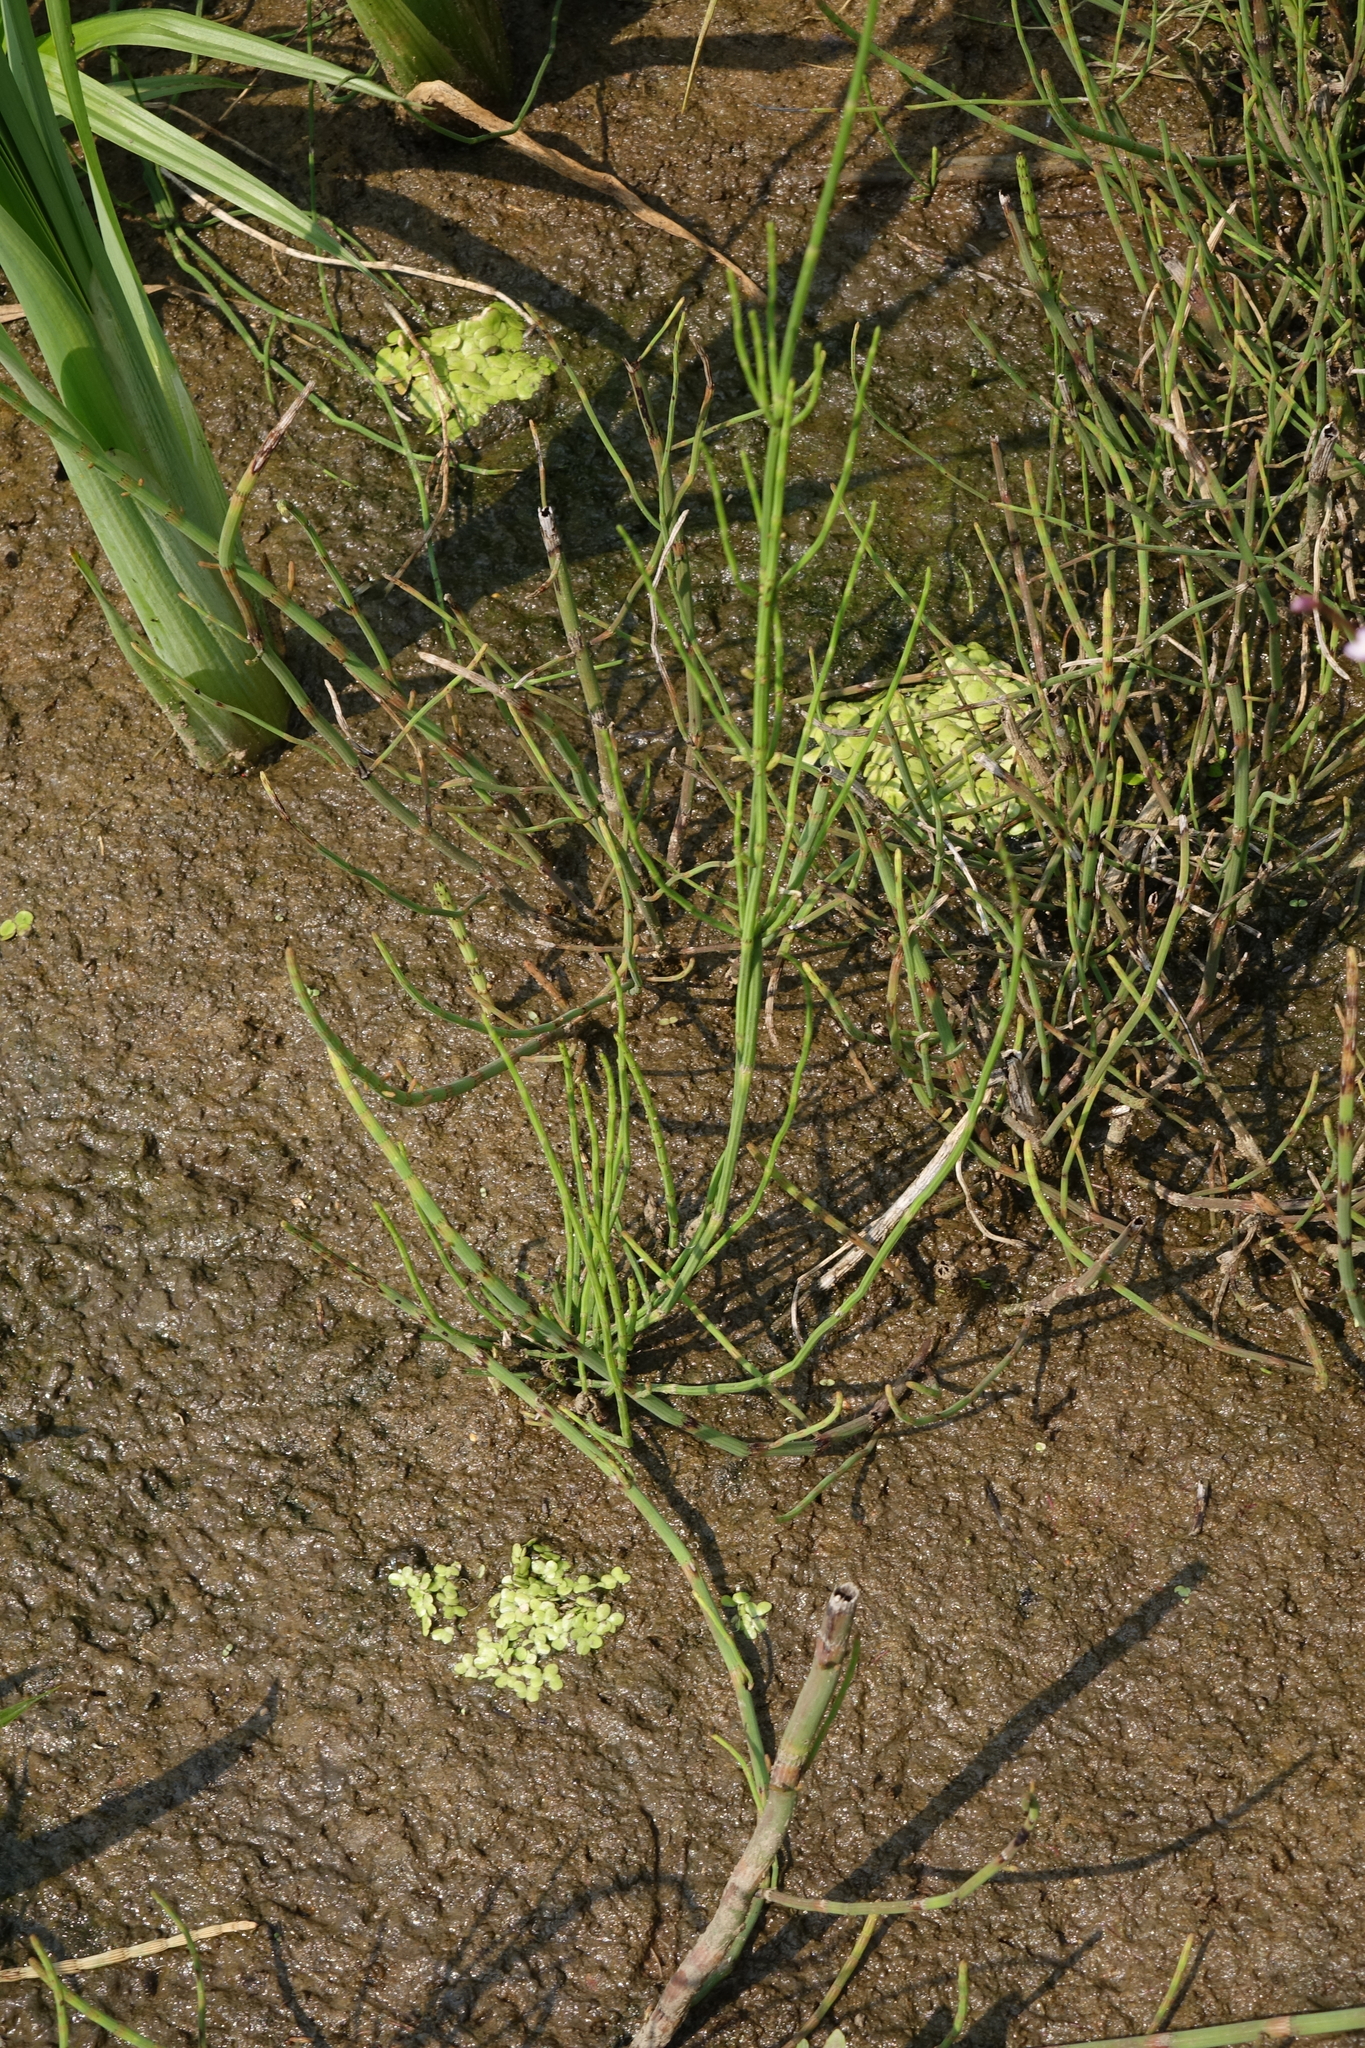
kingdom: Plantae
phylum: Tracheophyta
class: Polypodiopsida
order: Equisetales
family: Equisetaceae
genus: Equisetum
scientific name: Equisetum palustre
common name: Marsh horsetail
